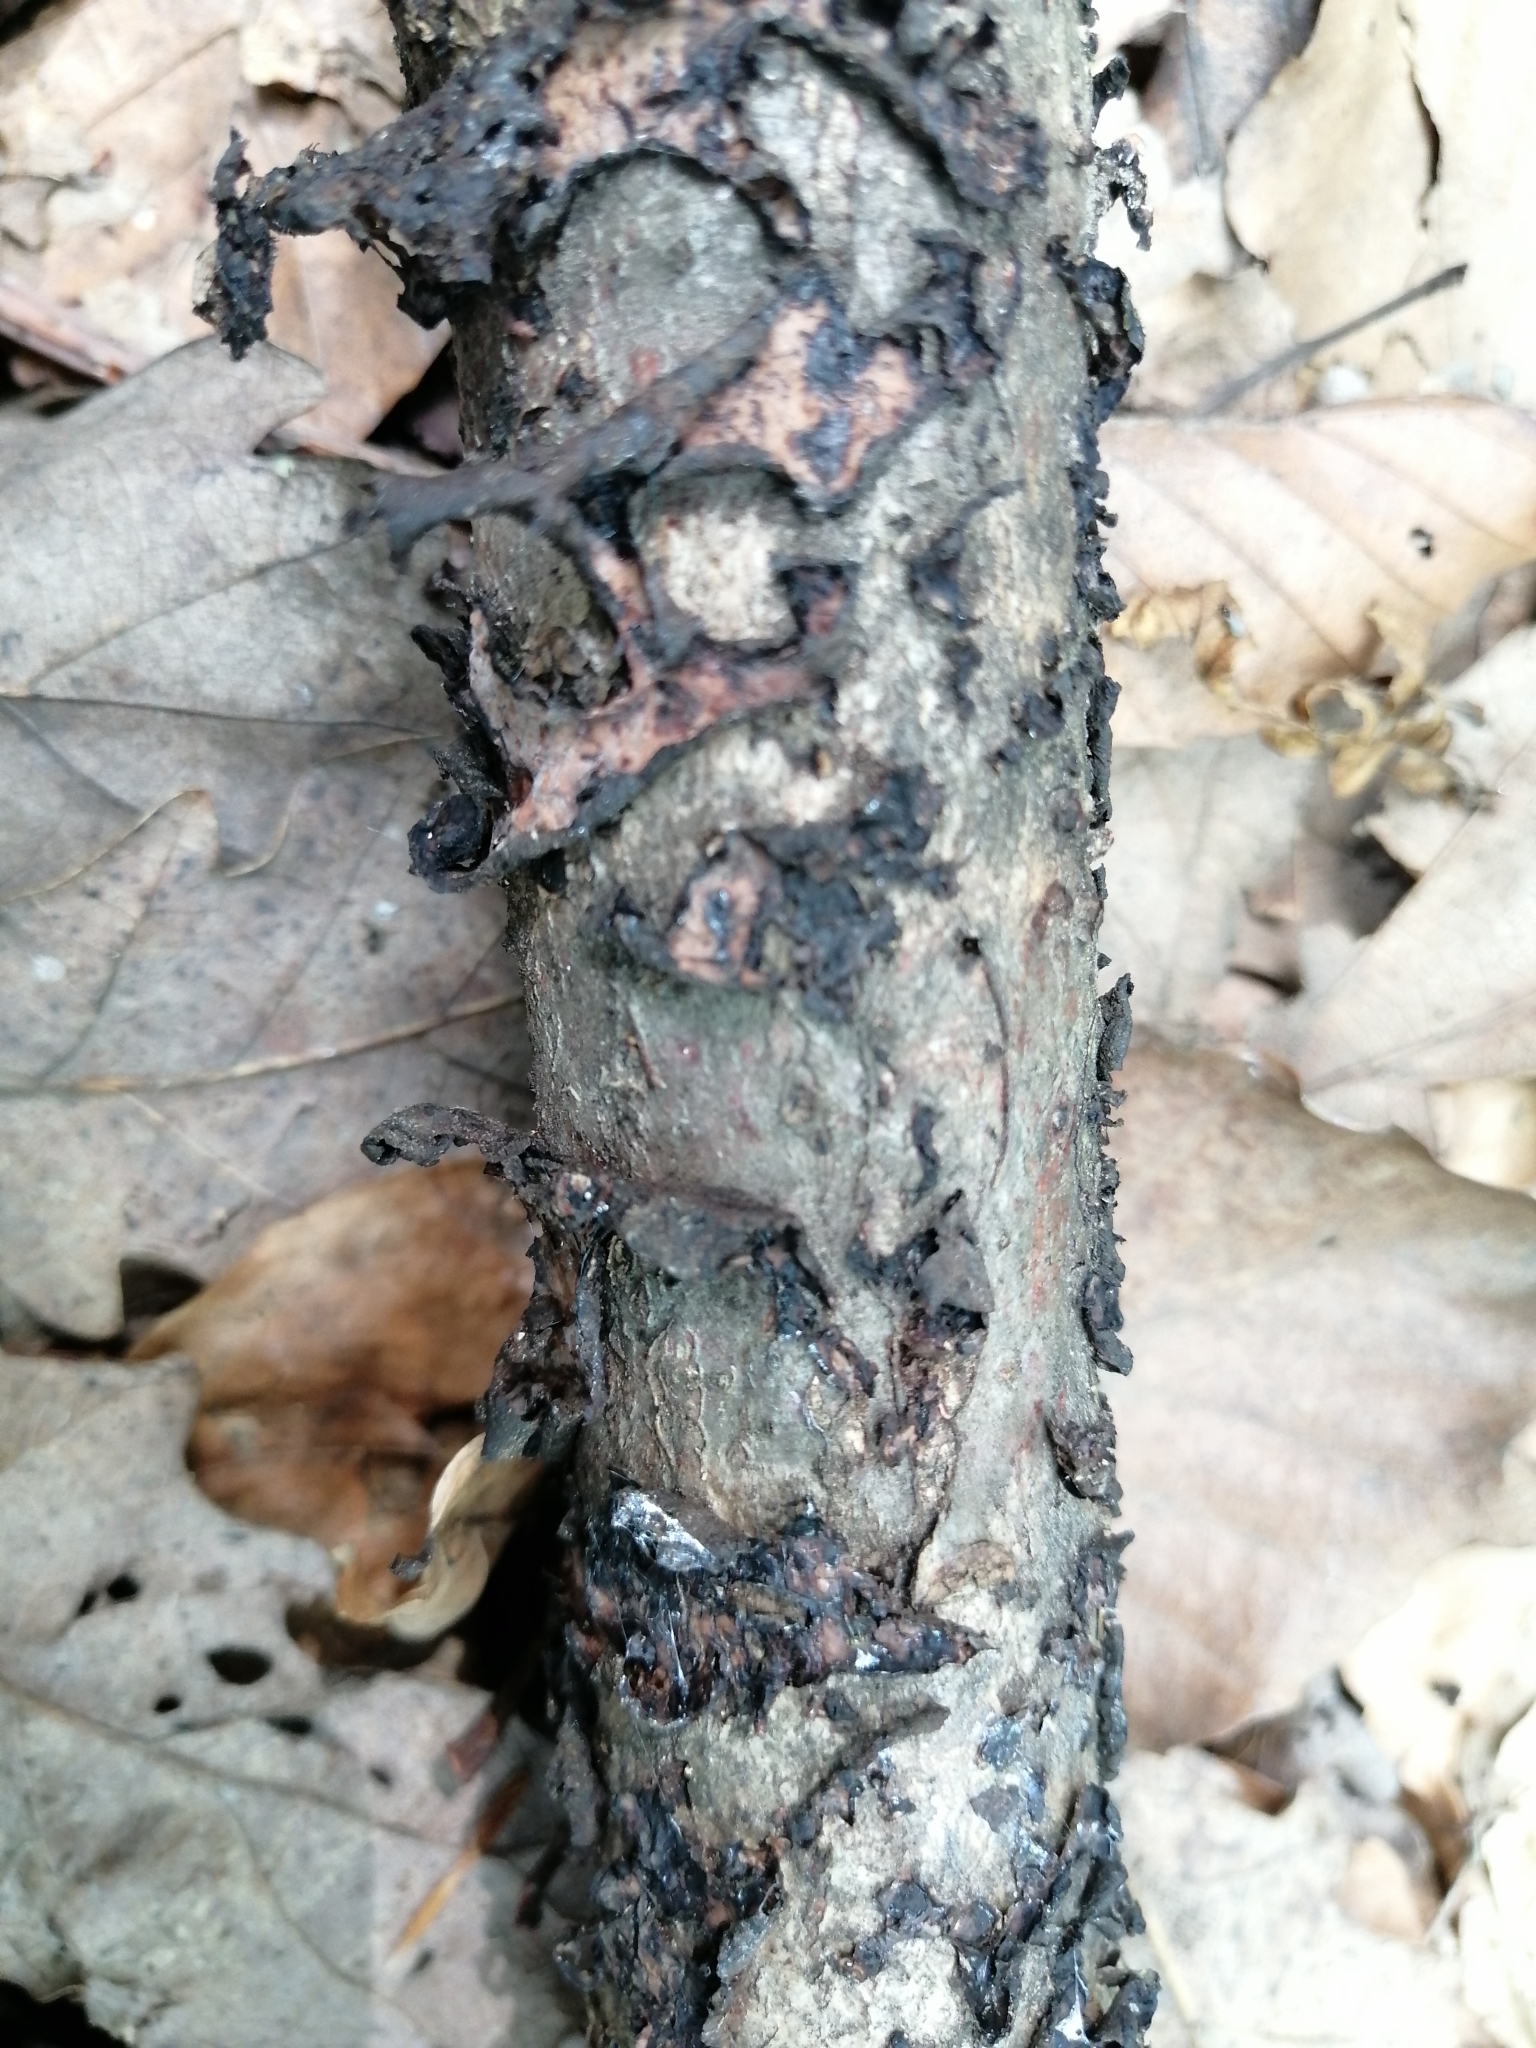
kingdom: Fungi
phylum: Basidiomycota
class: Agaricomycetes
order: Russulales
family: Peniophoraceae
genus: Peniophora
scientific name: Peniophora quercina
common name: Oak crust
